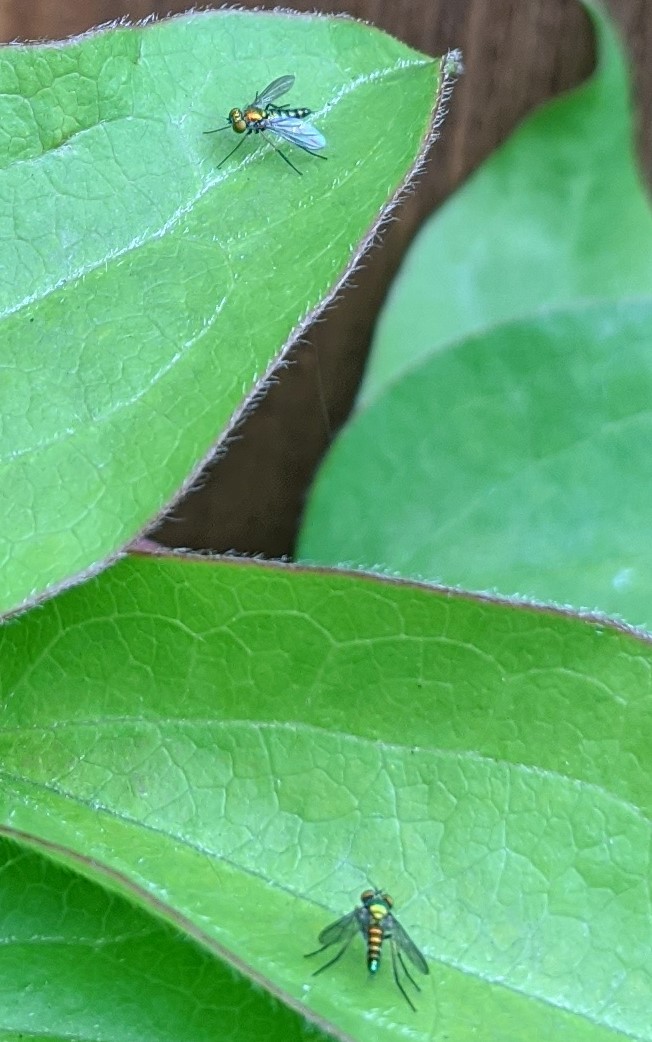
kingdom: Animalia
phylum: Arthropoda
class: Insecta
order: Diptera
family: Dolichopodidae
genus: Condylostylus
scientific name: Condylostylus caudatus
